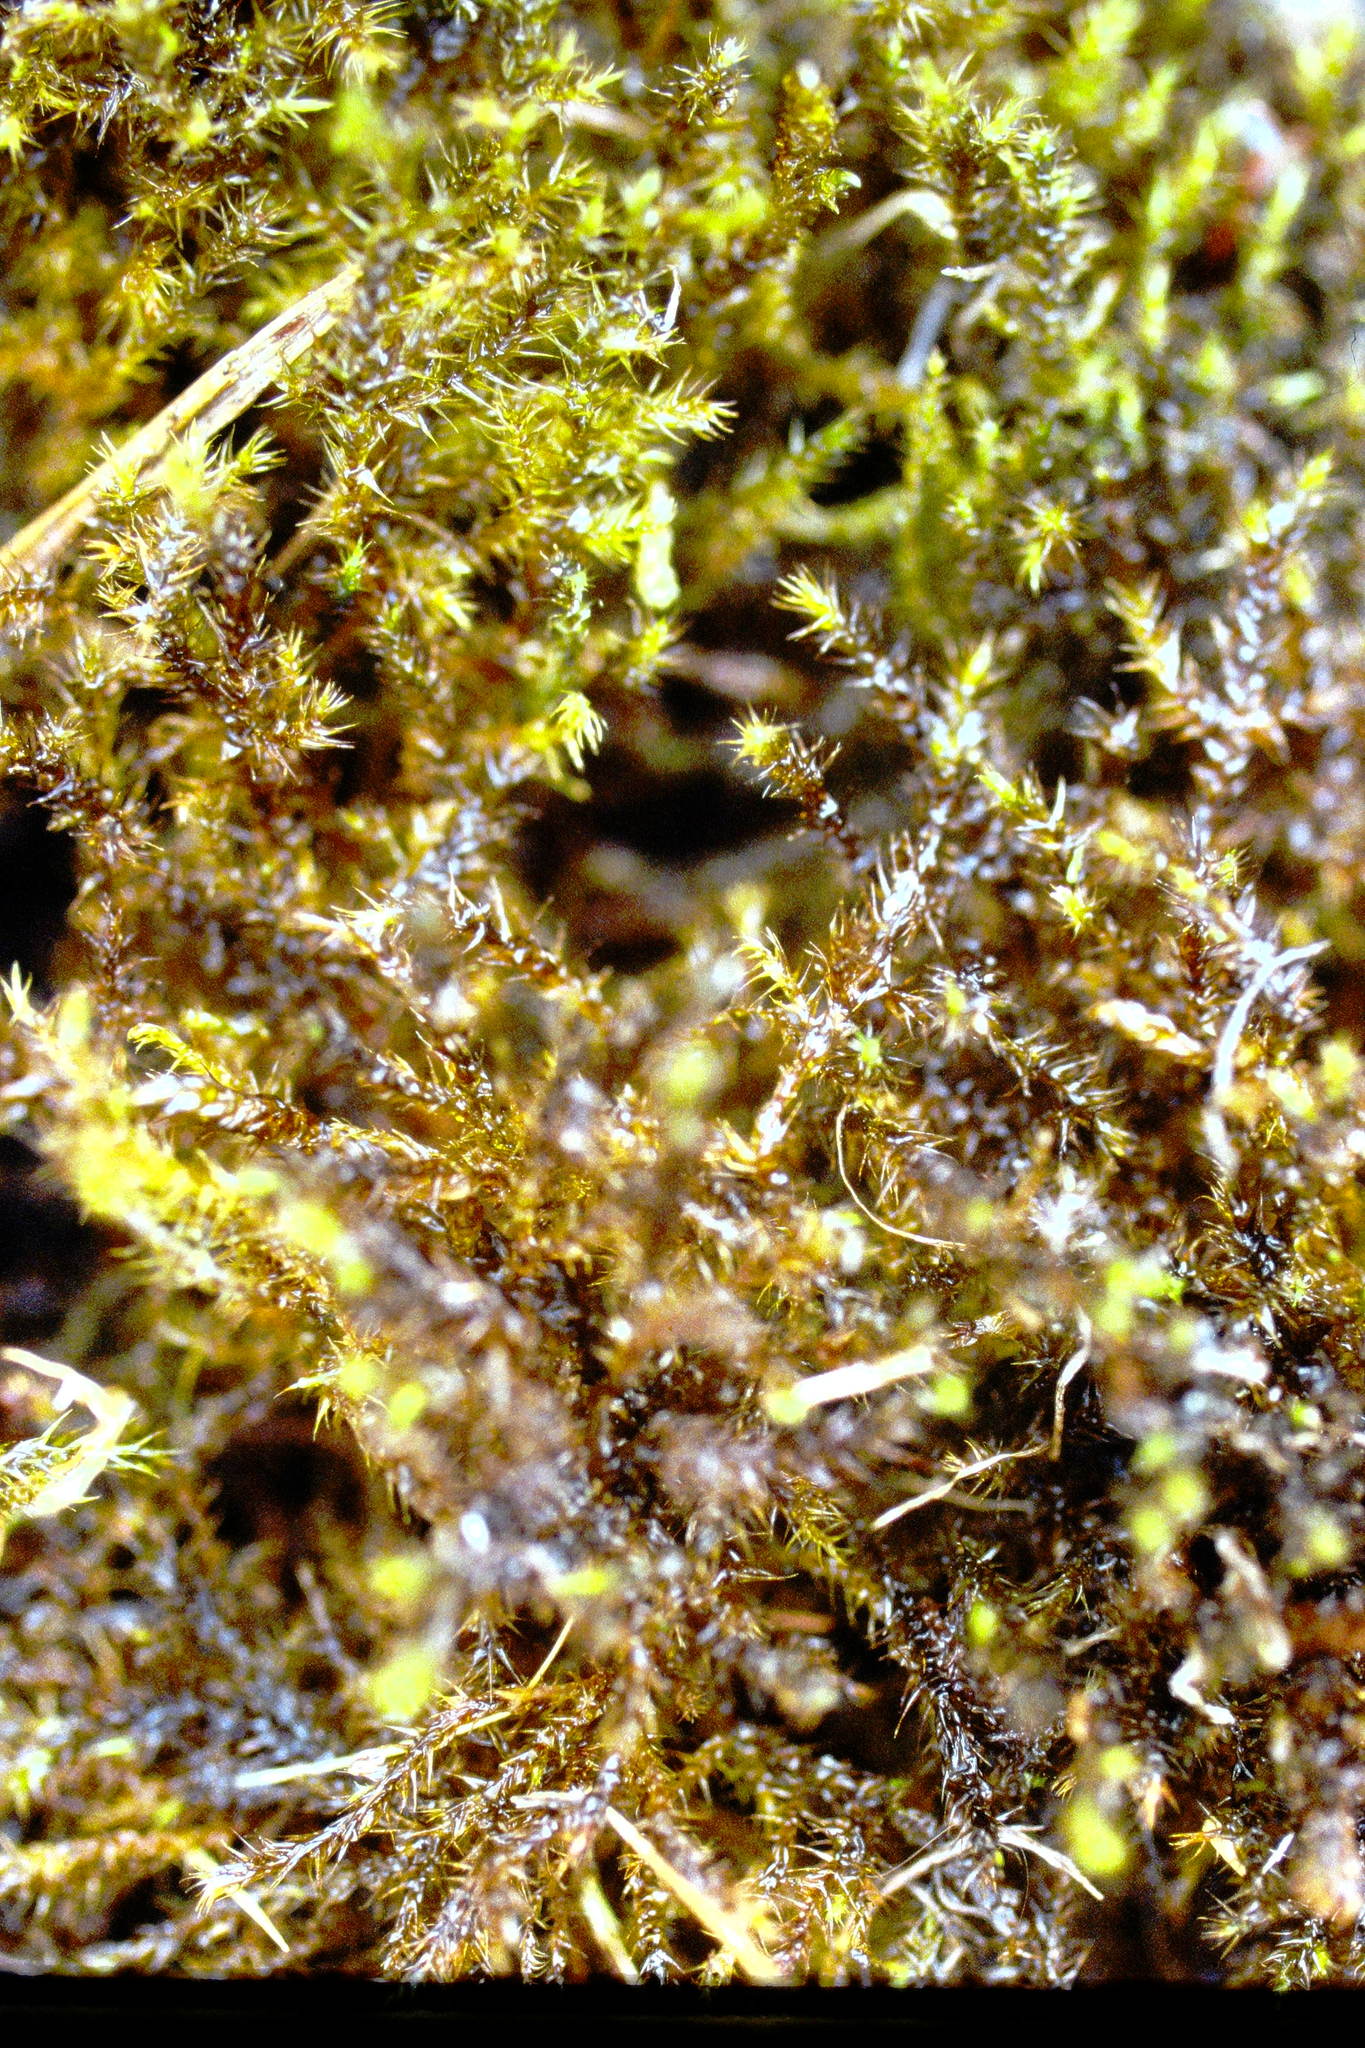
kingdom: Plantae
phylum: Bryophyta
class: Bryopsida
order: Hypnales
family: Amblystegiaceae
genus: Campylium
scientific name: Campylium stellatum
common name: Yellow starry fen moss
